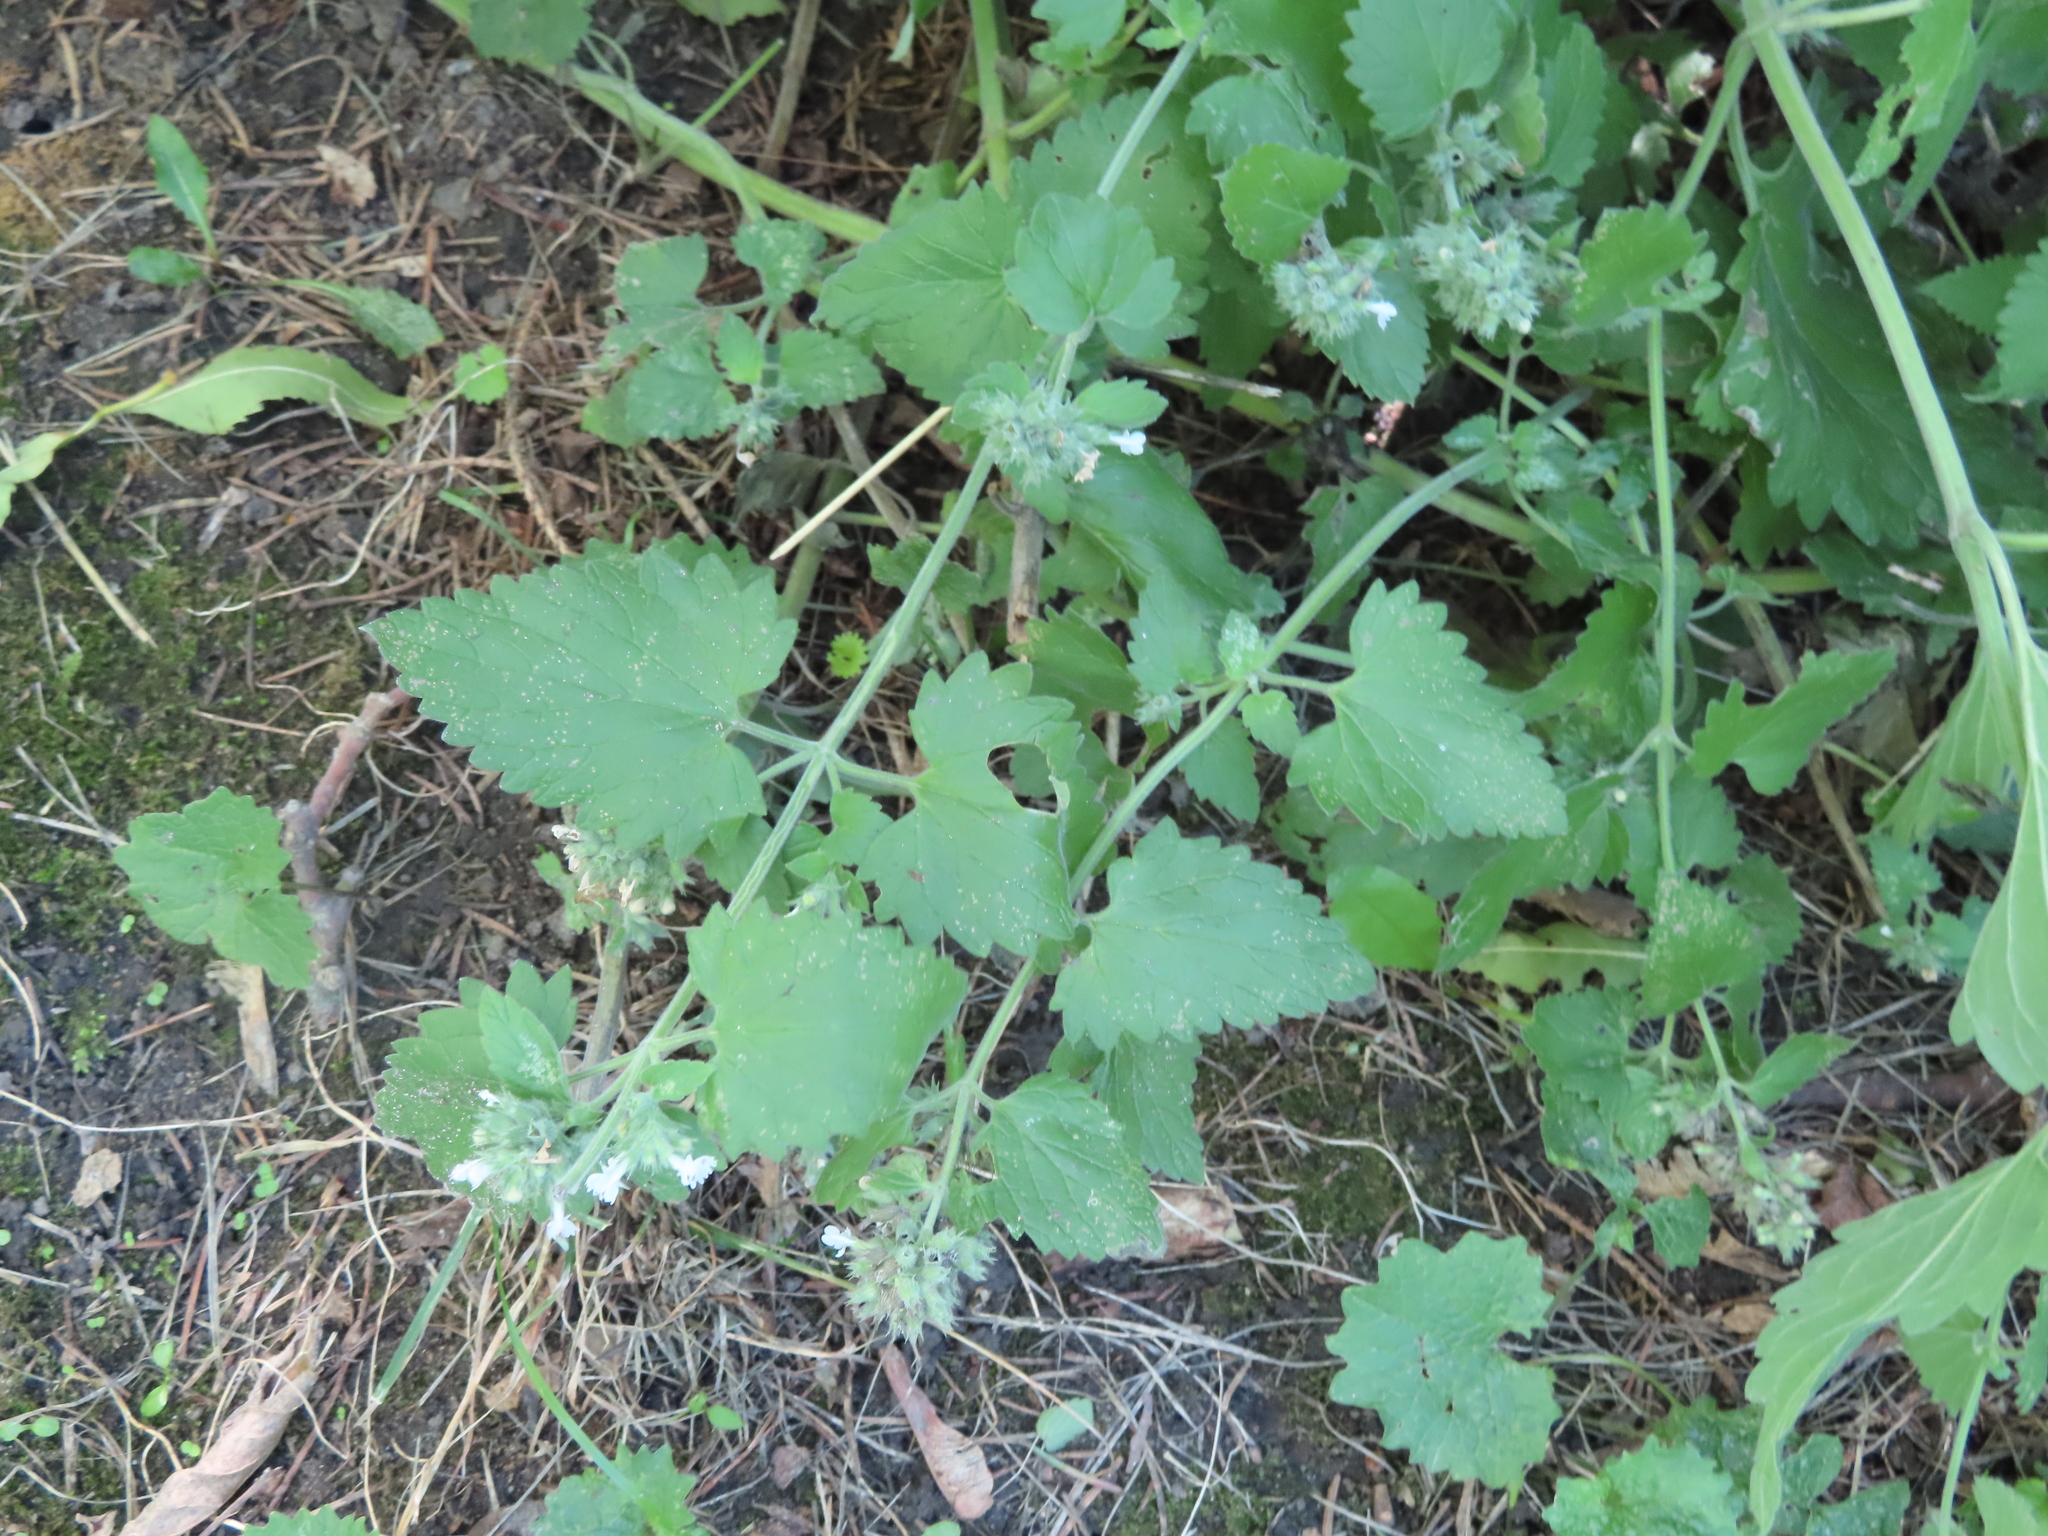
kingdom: Plantae
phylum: Tracheophyta
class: Magnoliopsida
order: Lamiales
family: Lamiaceae
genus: Nepeta
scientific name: Nepeta cataria
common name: Catnip
